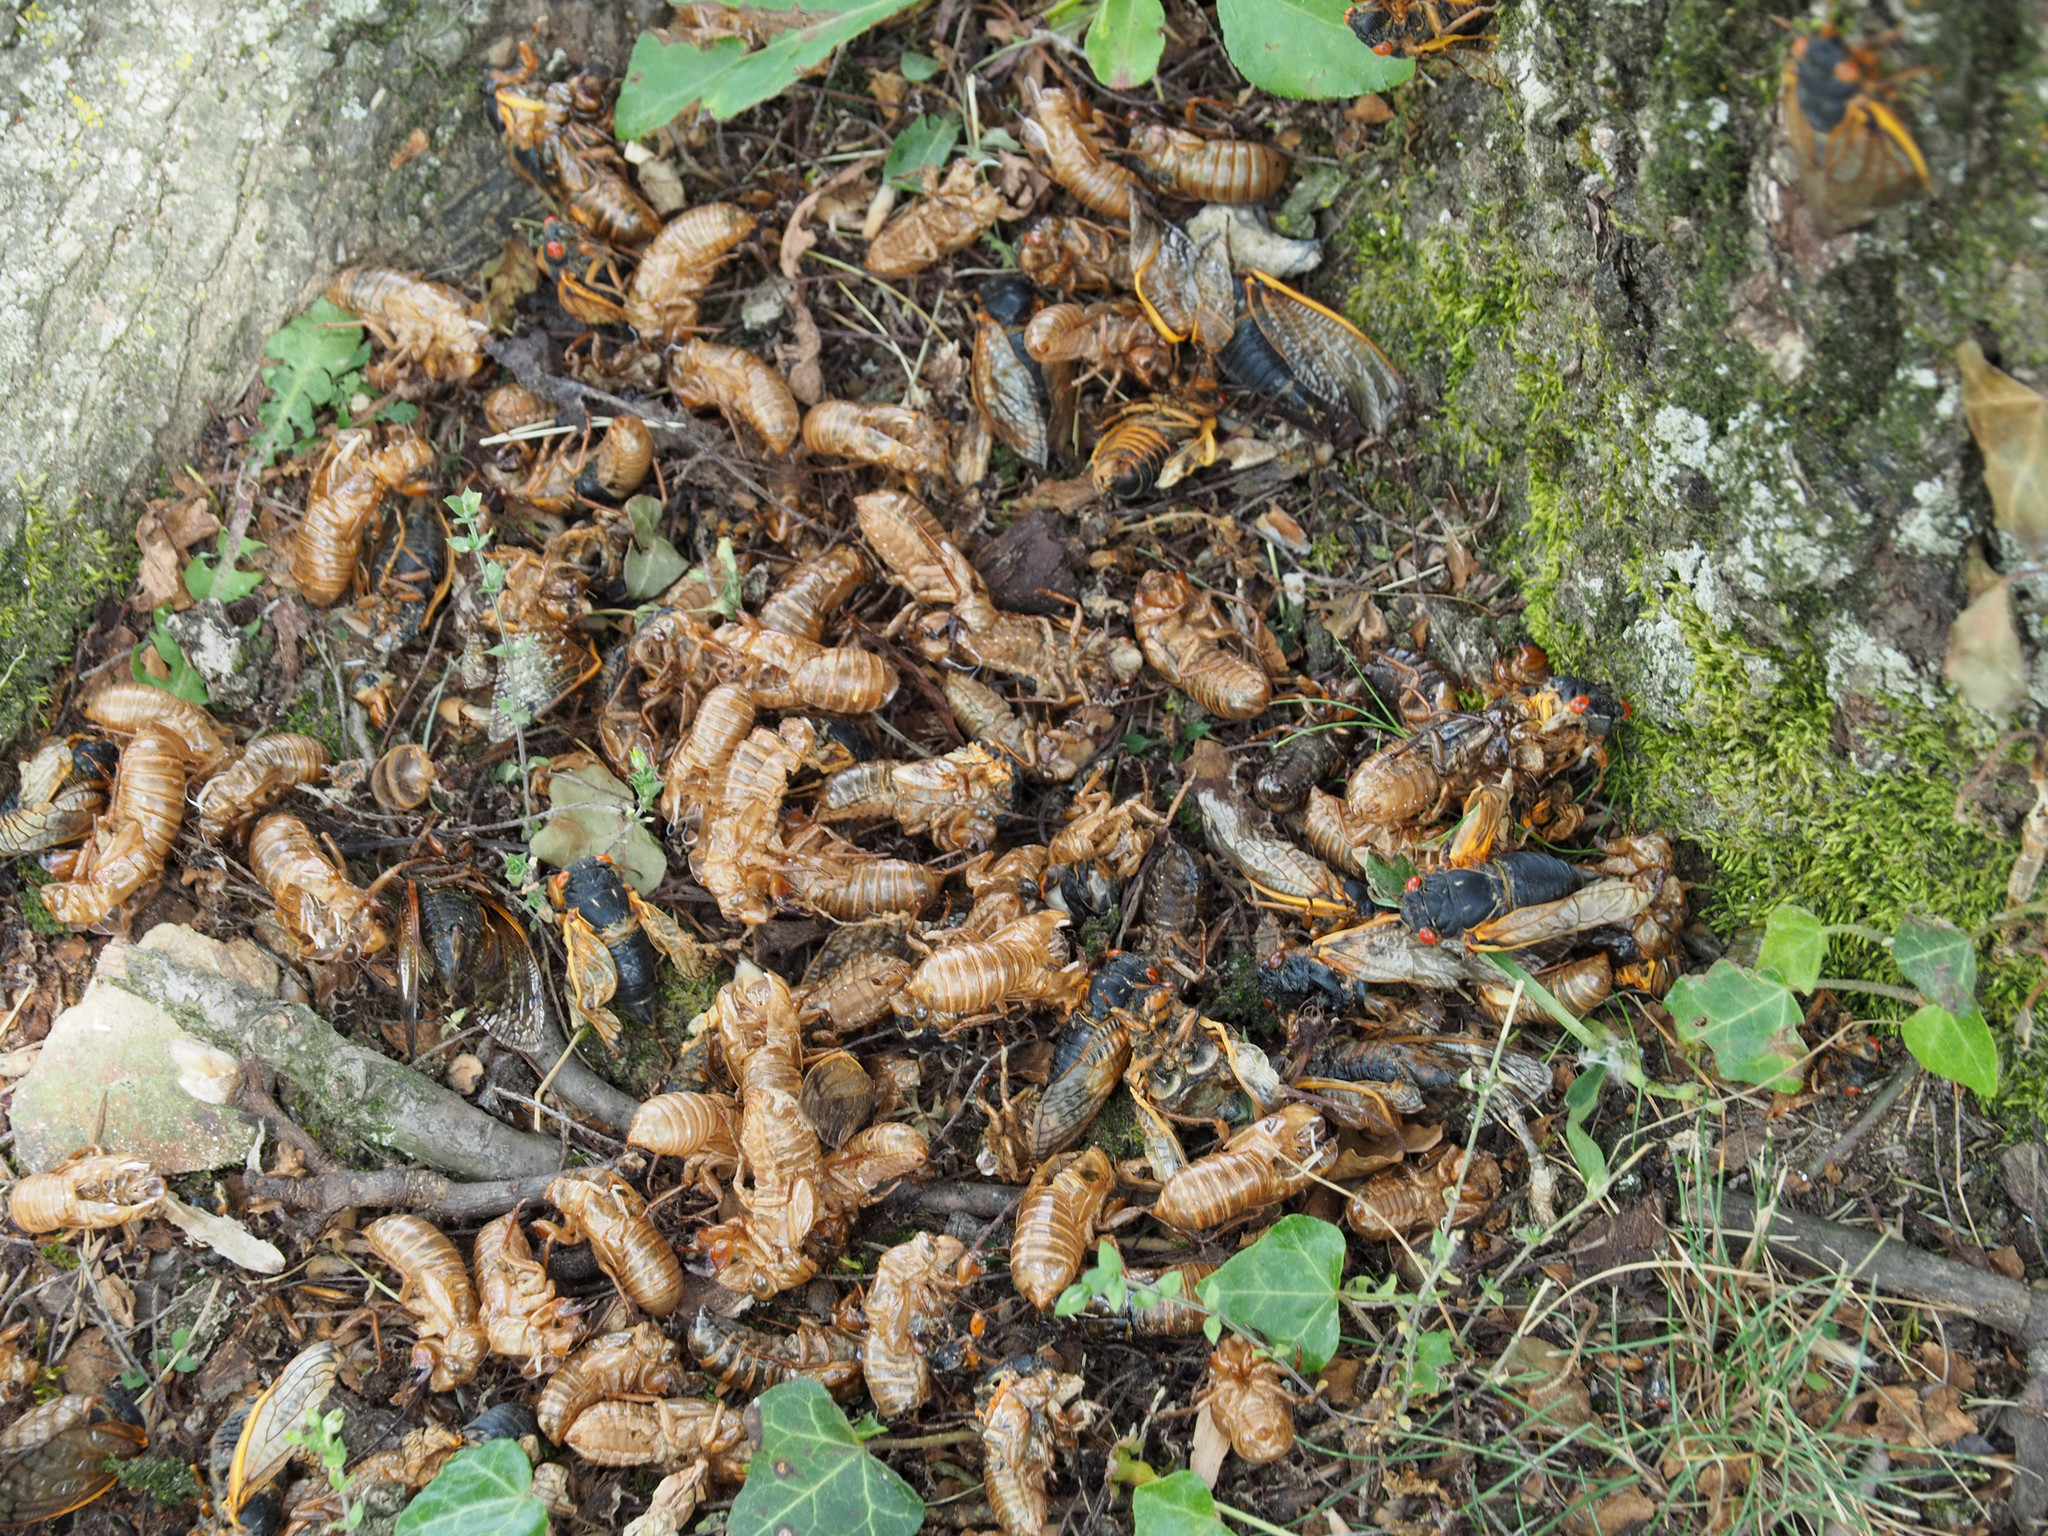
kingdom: Animalia
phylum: Arthropoda
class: Insecta
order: Hemiptera
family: Cicadidae
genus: Magicicada
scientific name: Magicicada
